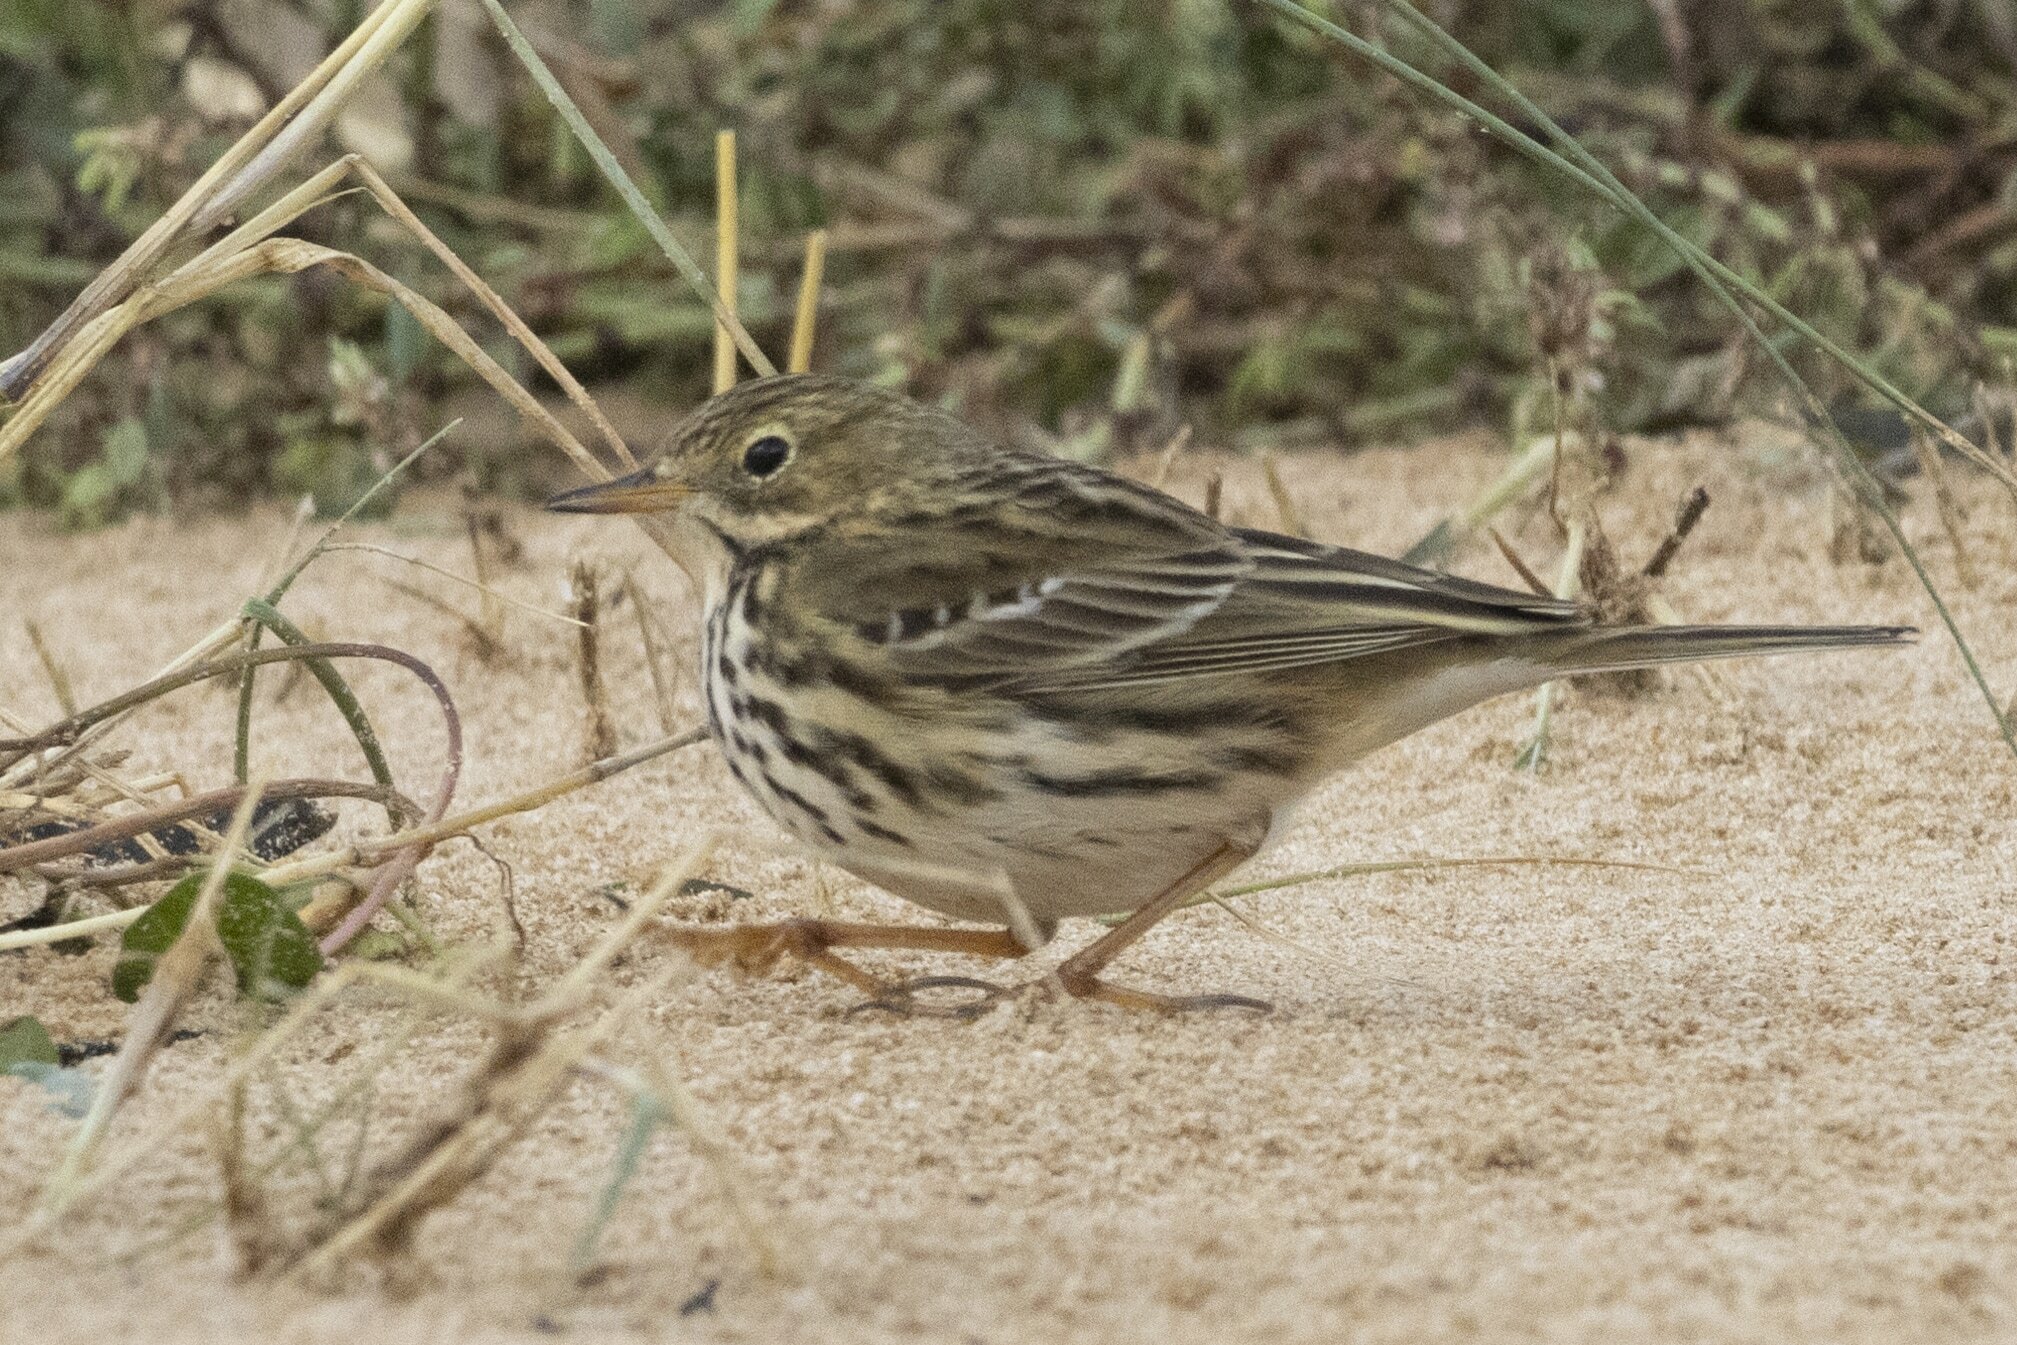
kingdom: Animalia
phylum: Chordata
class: Aves
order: Passeriformes
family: Motacillidae
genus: Anthus
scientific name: Anthus pratensis
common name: Meadow pipit
